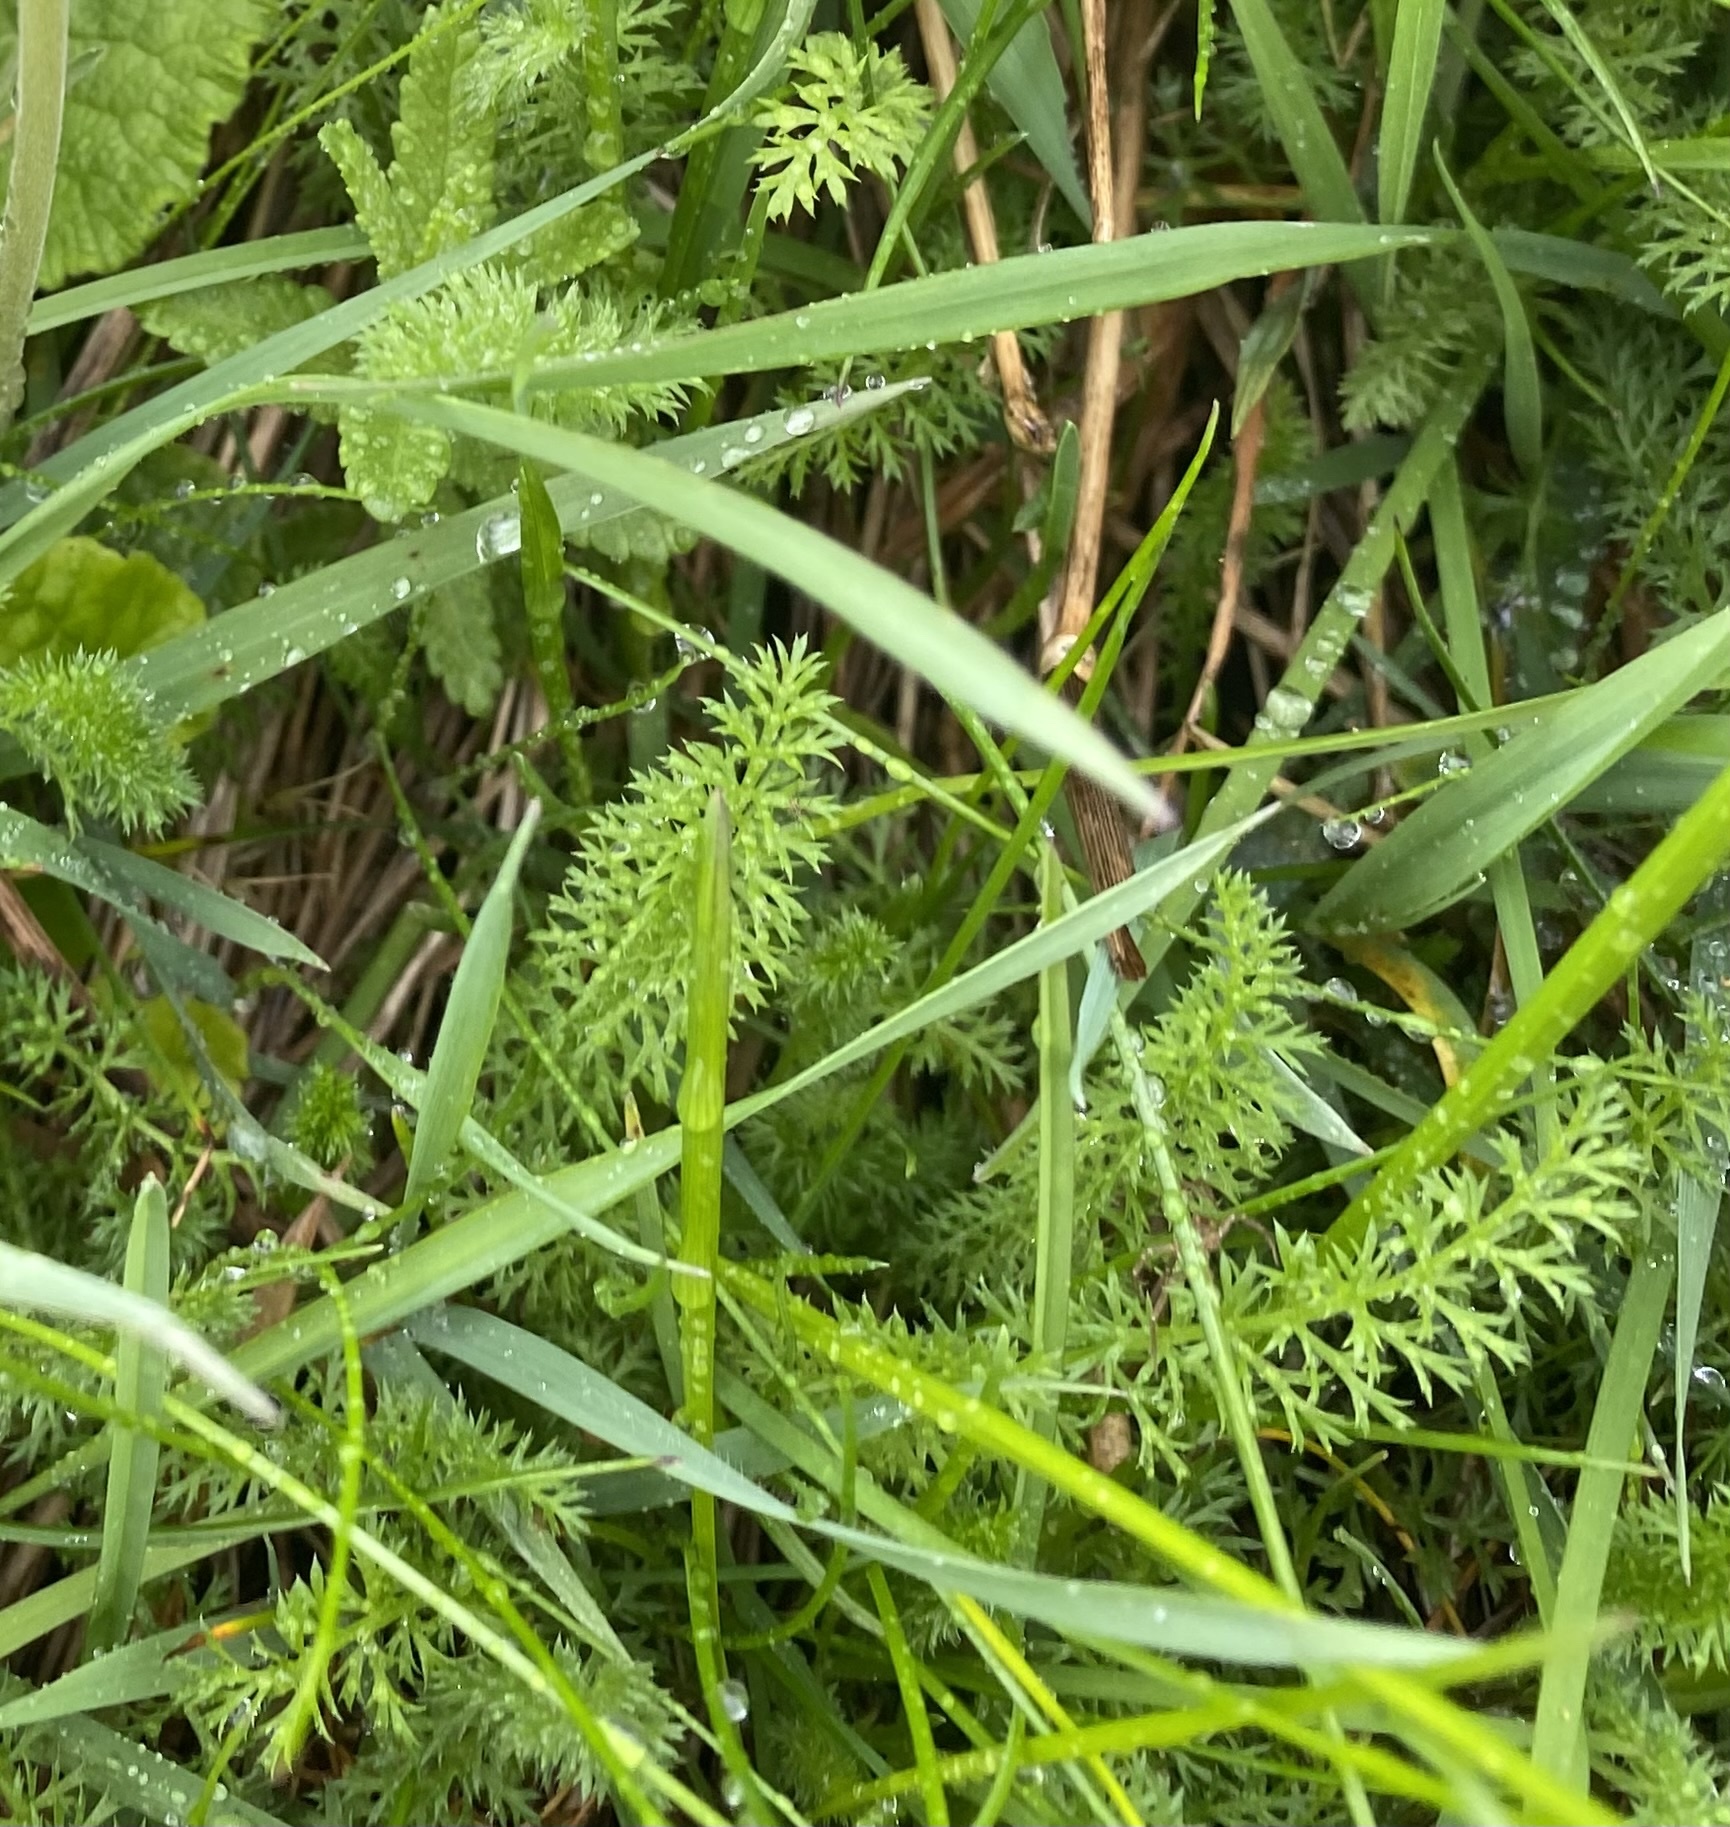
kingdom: Plantae
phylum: Tracheophyta
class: Magnoliopsida
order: Asterales
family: Asteraceae
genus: Achillea
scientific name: Achillea millefolium
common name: Yarrow
